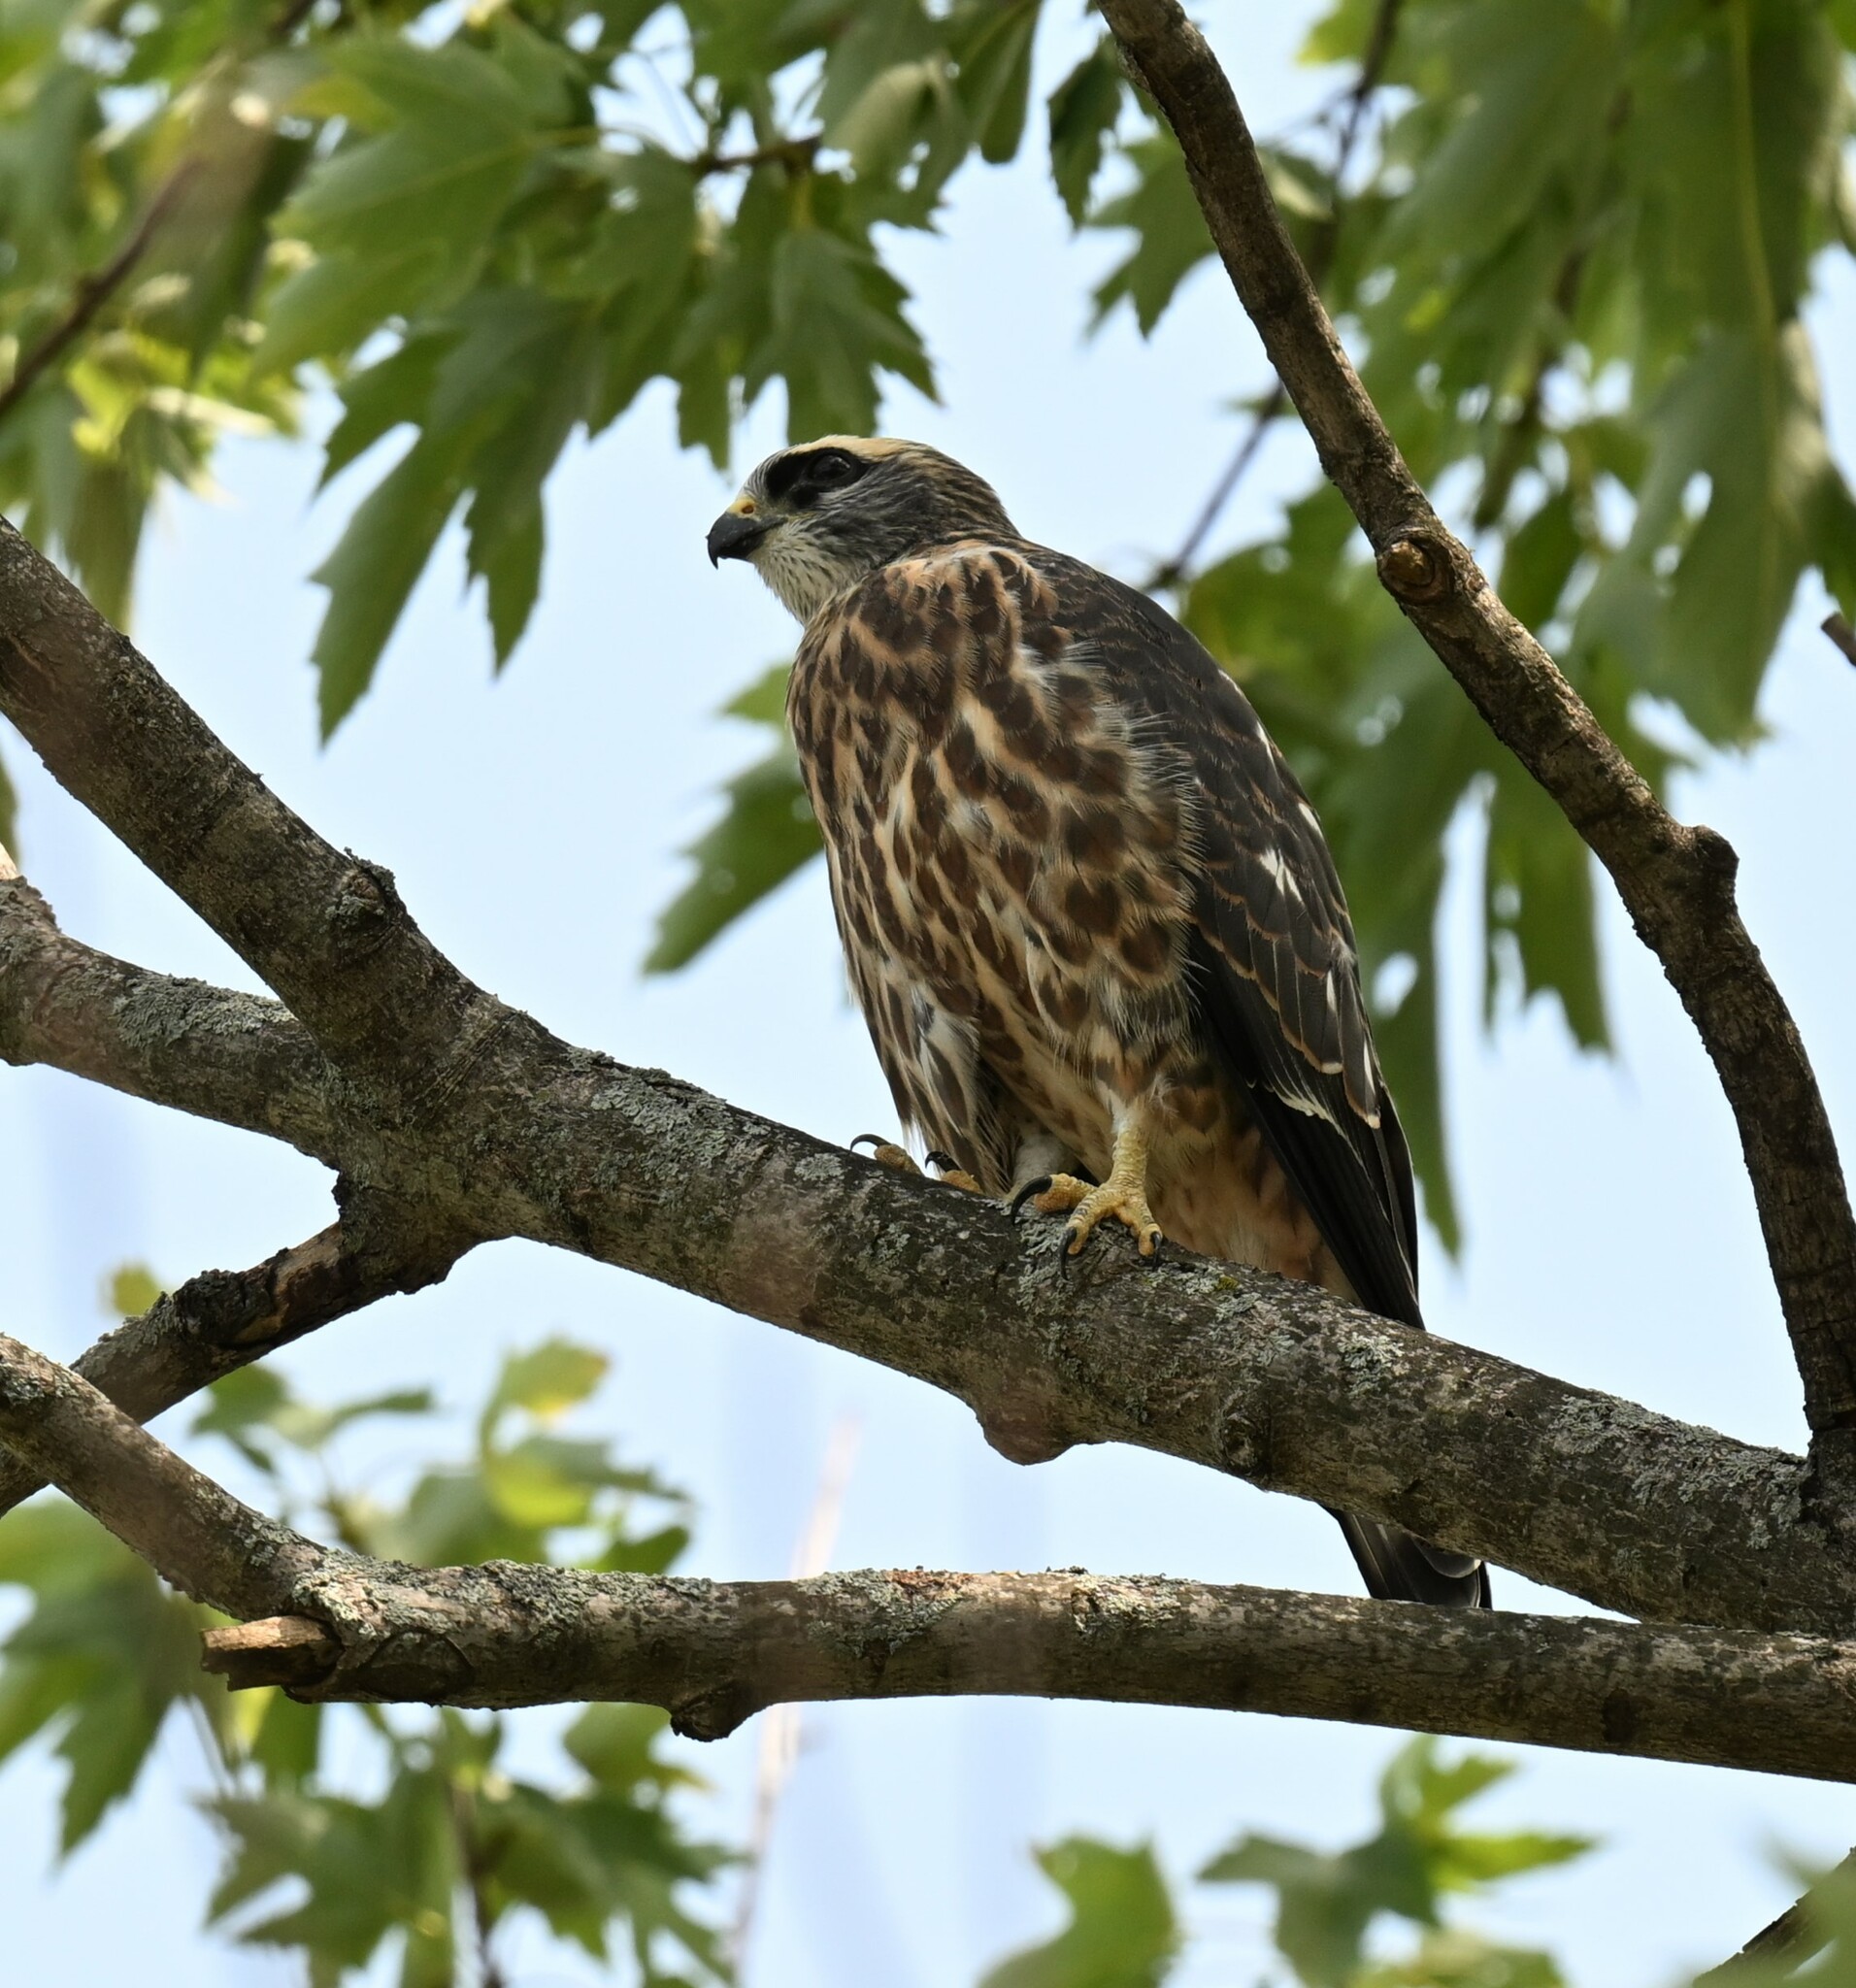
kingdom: Animalia
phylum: Chordata
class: Aves
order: Accipitriformes
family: Accipitridae
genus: Ictinia
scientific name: Ictinia mississippiensis
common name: Mississippi kite
